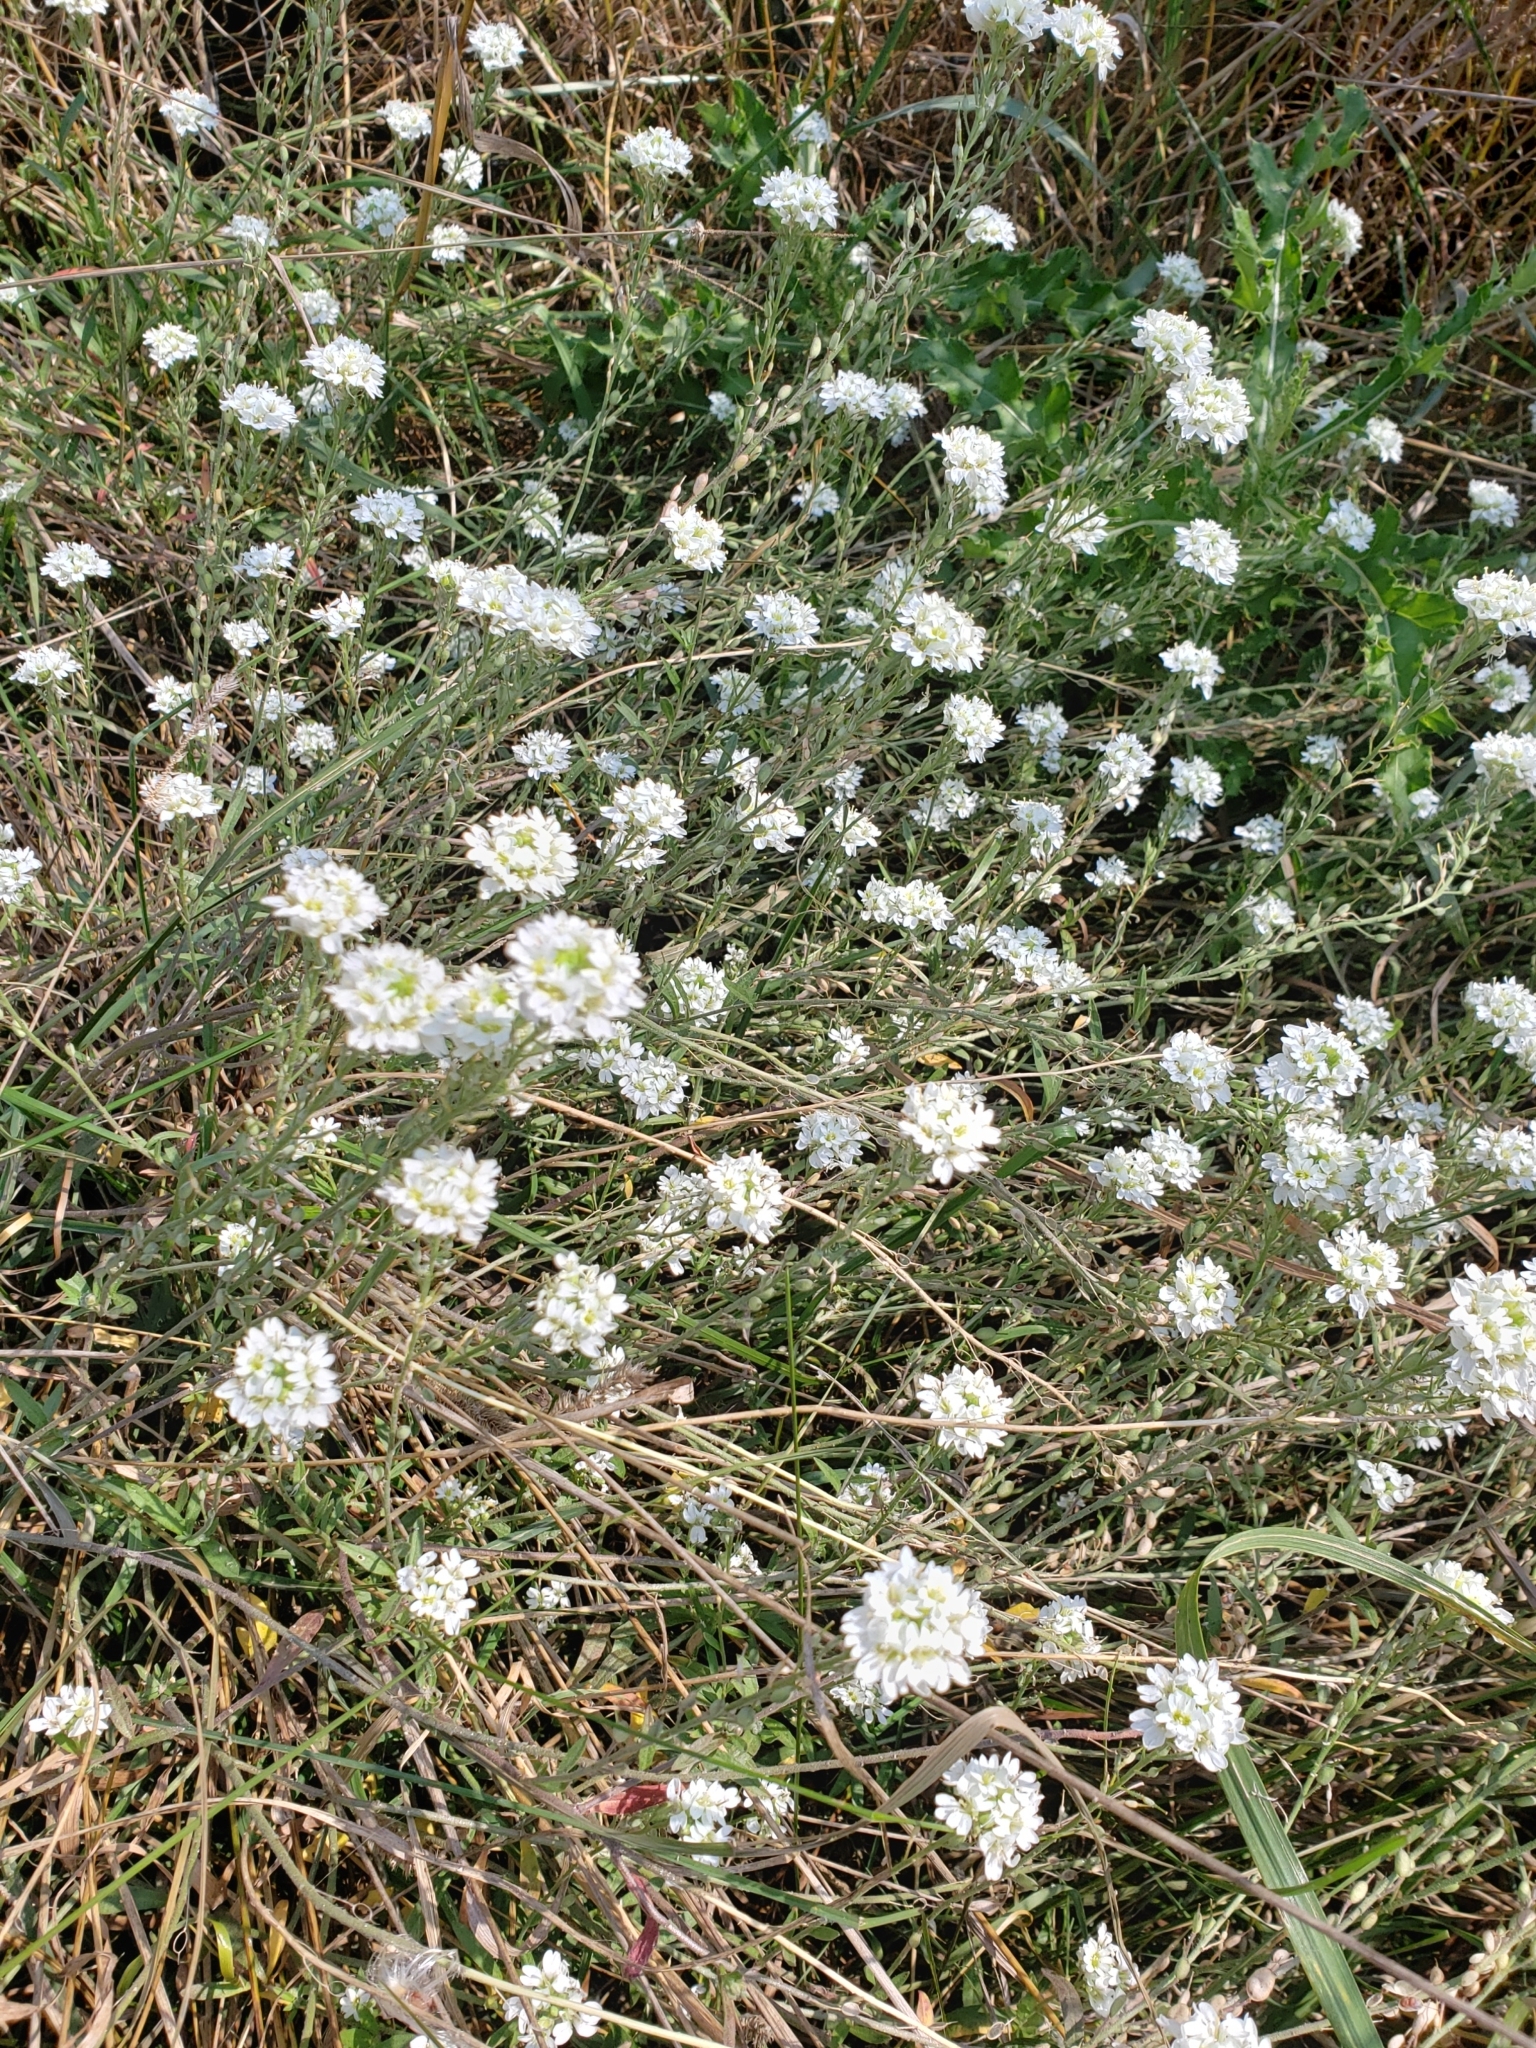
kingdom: Plantae
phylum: Tracheophyta
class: Magnoliopsida
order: Brassicales
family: Brassicaceae
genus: Berteroa
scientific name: Berteroa incana
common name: Hoary alison
